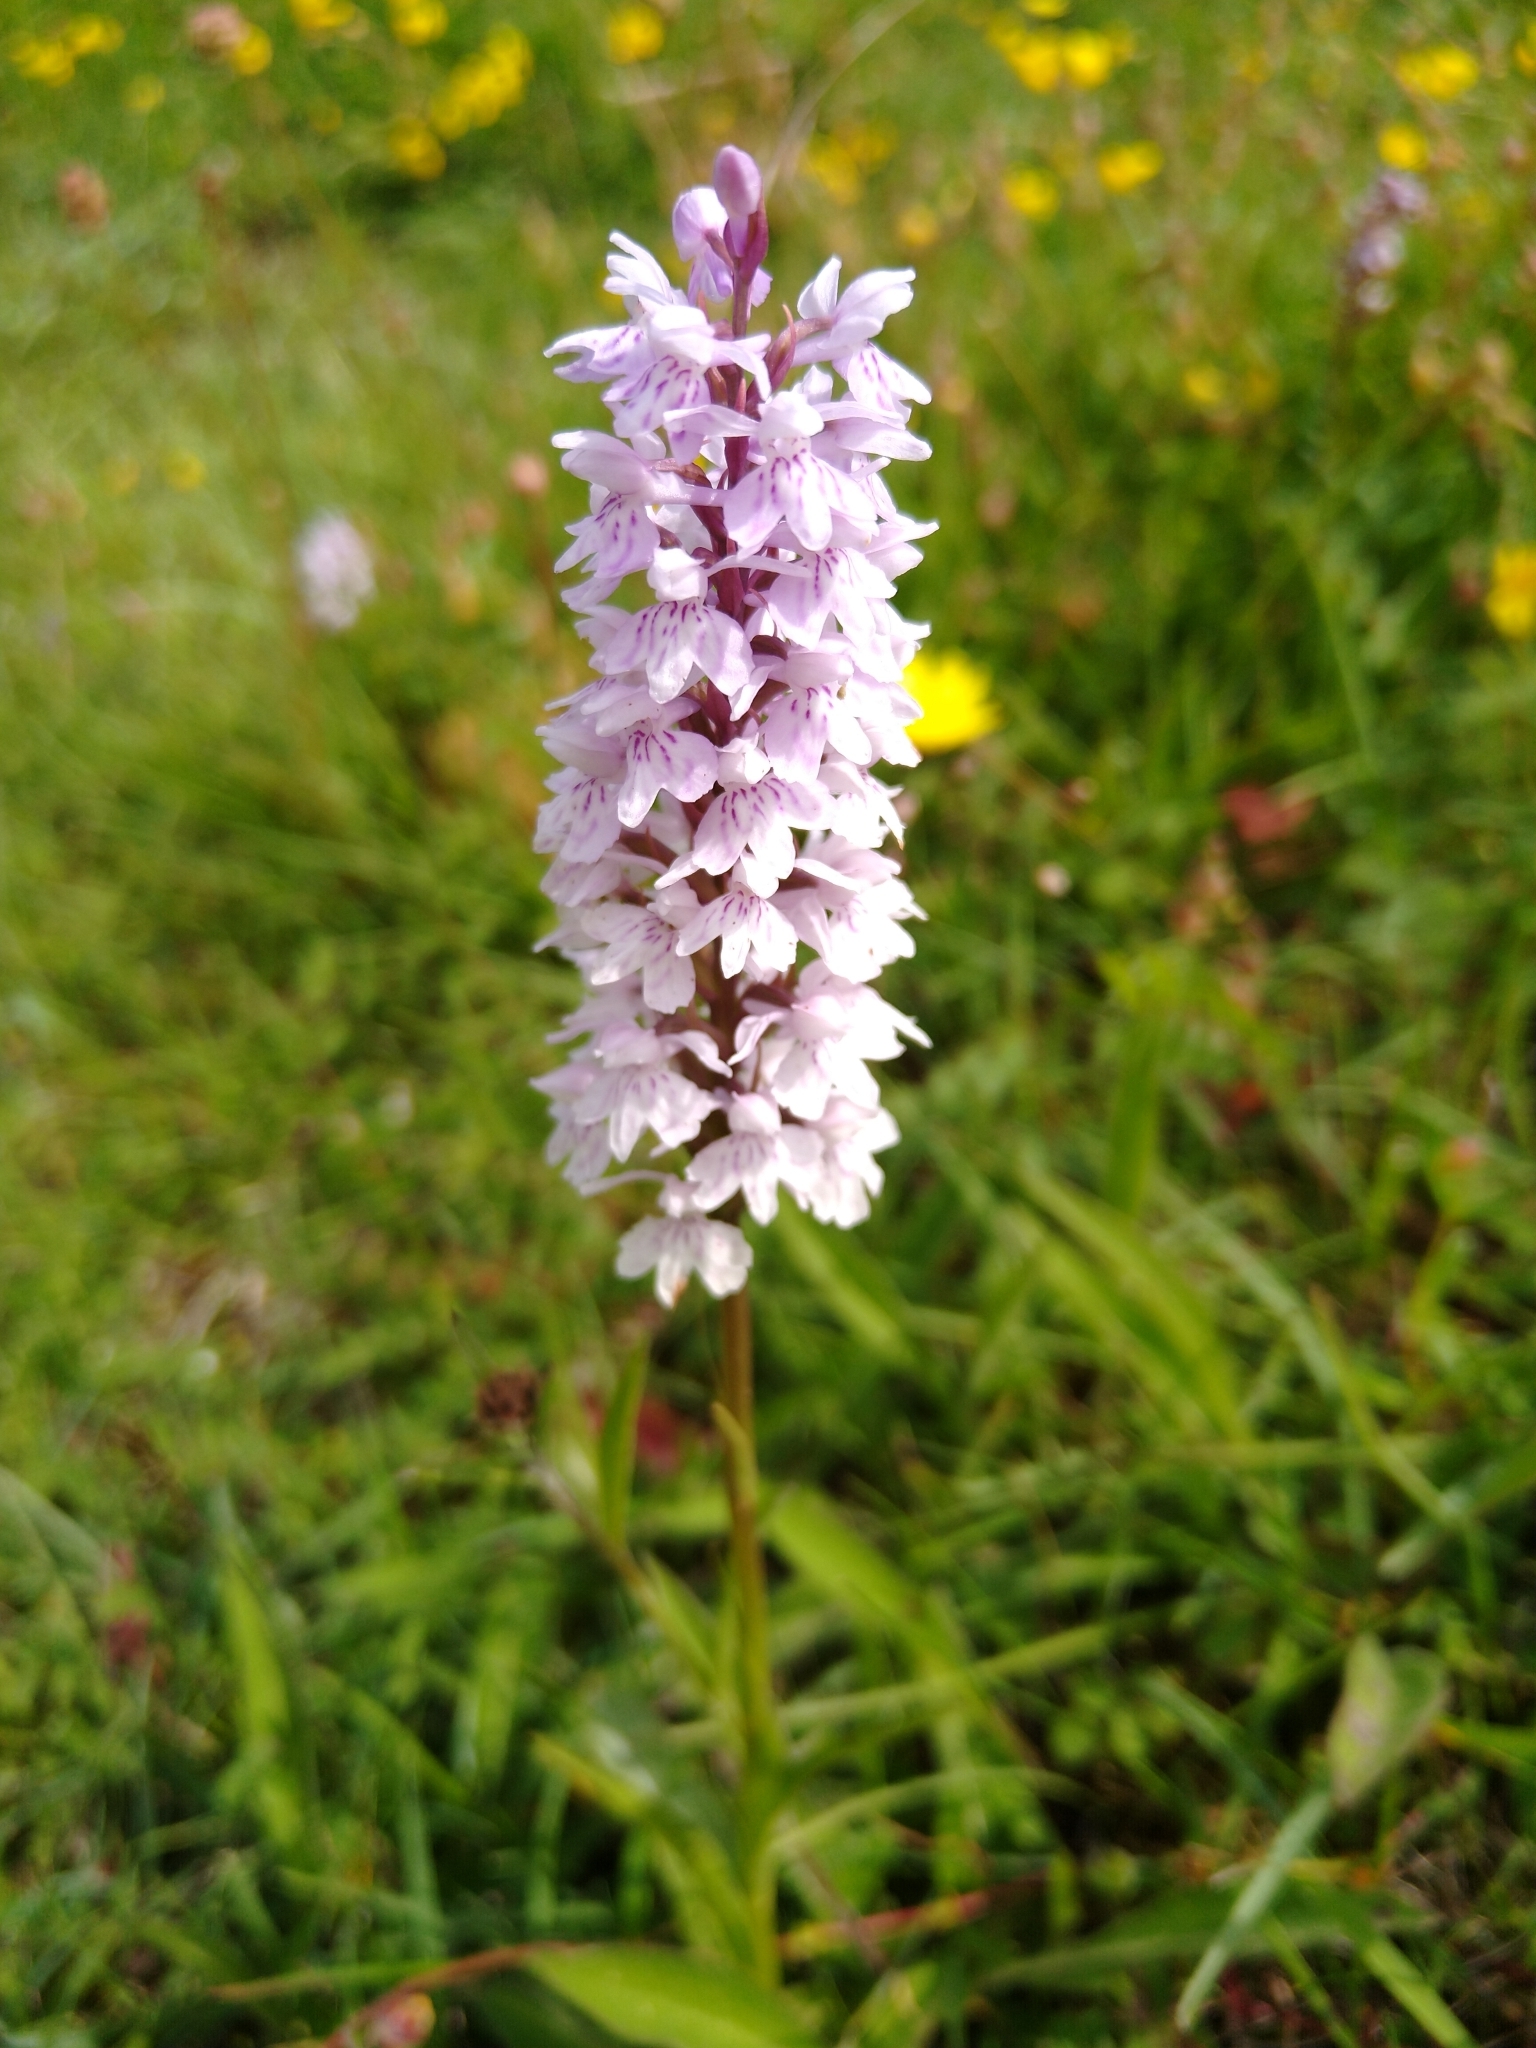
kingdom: Plantae
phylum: Tracheophyta
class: Liliopsida
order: Asparagales
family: Orchidaceae
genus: Dactylorhiza
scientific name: Dactylorhiza maculata
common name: Heath spotted-orchid
